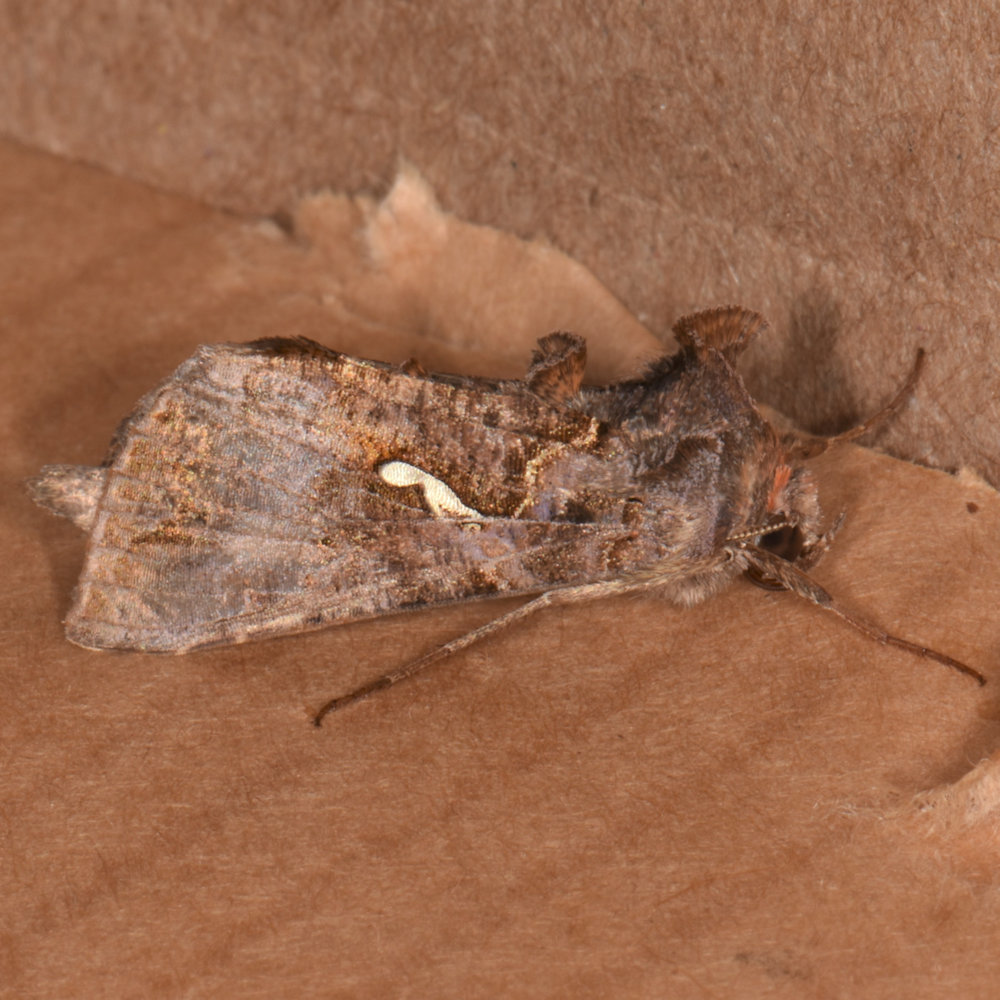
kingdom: Animalia
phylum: Arthropoda
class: Insecta
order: Lepidoptera
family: Noctuidae
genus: Autographa
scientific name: Autographa precationis
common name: Common looper moth
